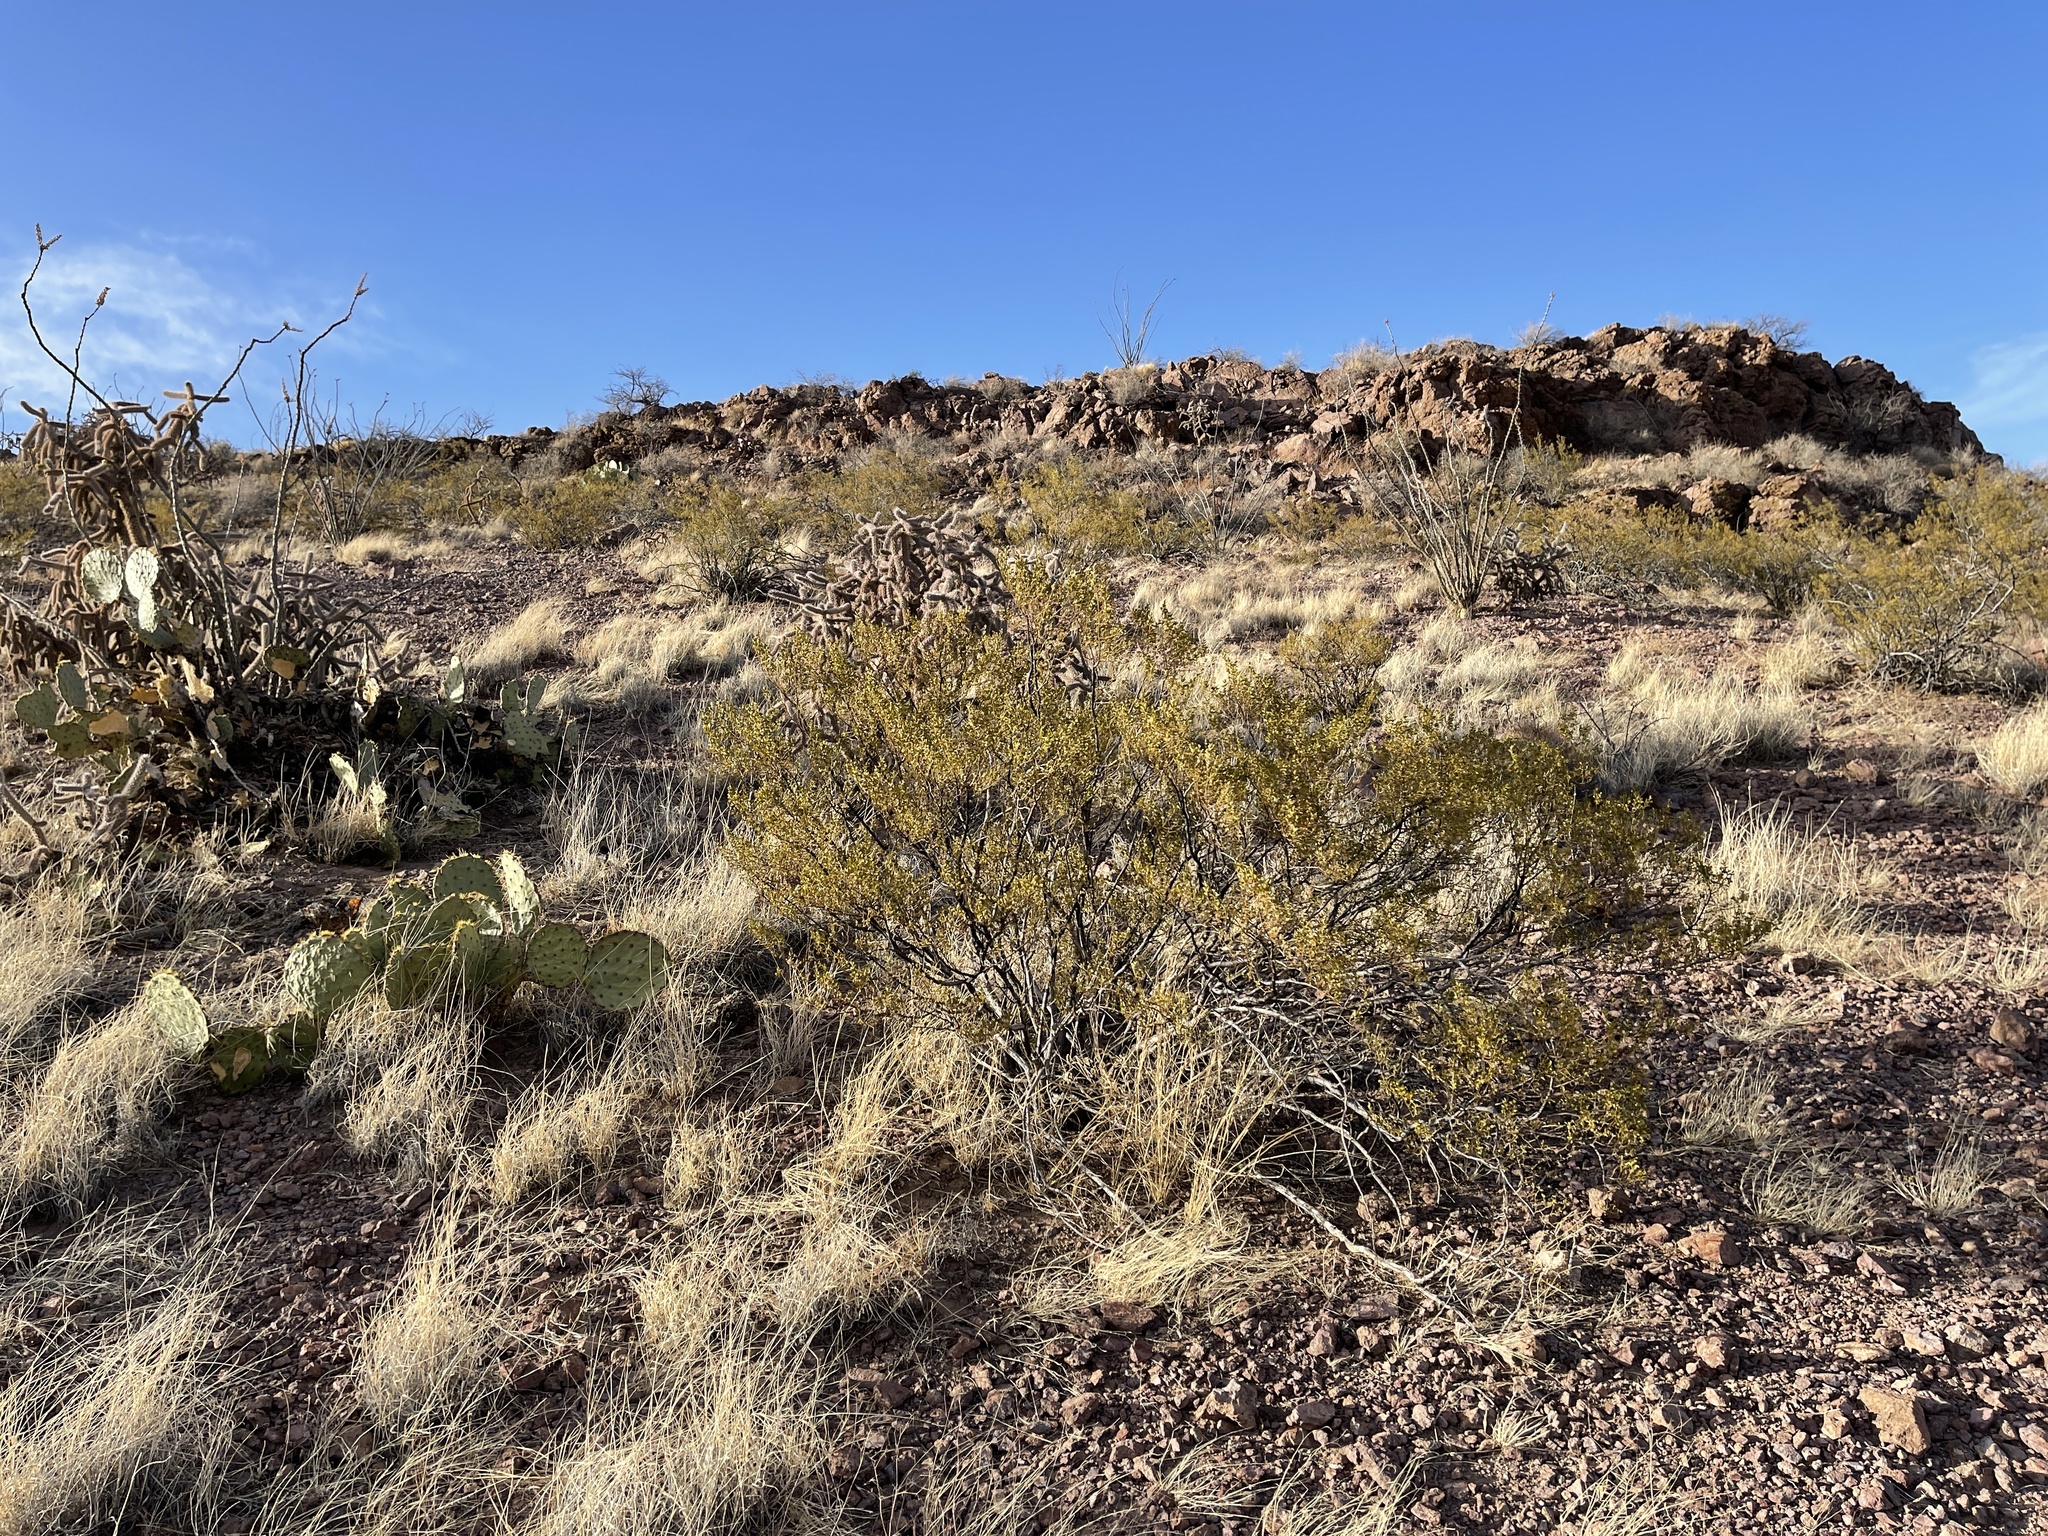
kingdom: Plantae
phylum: Tracheophyta
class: Magnoliopsida
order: Zygophyllales
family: Zygophyllaceae
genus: Larrea
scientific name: Larrea tridentata
